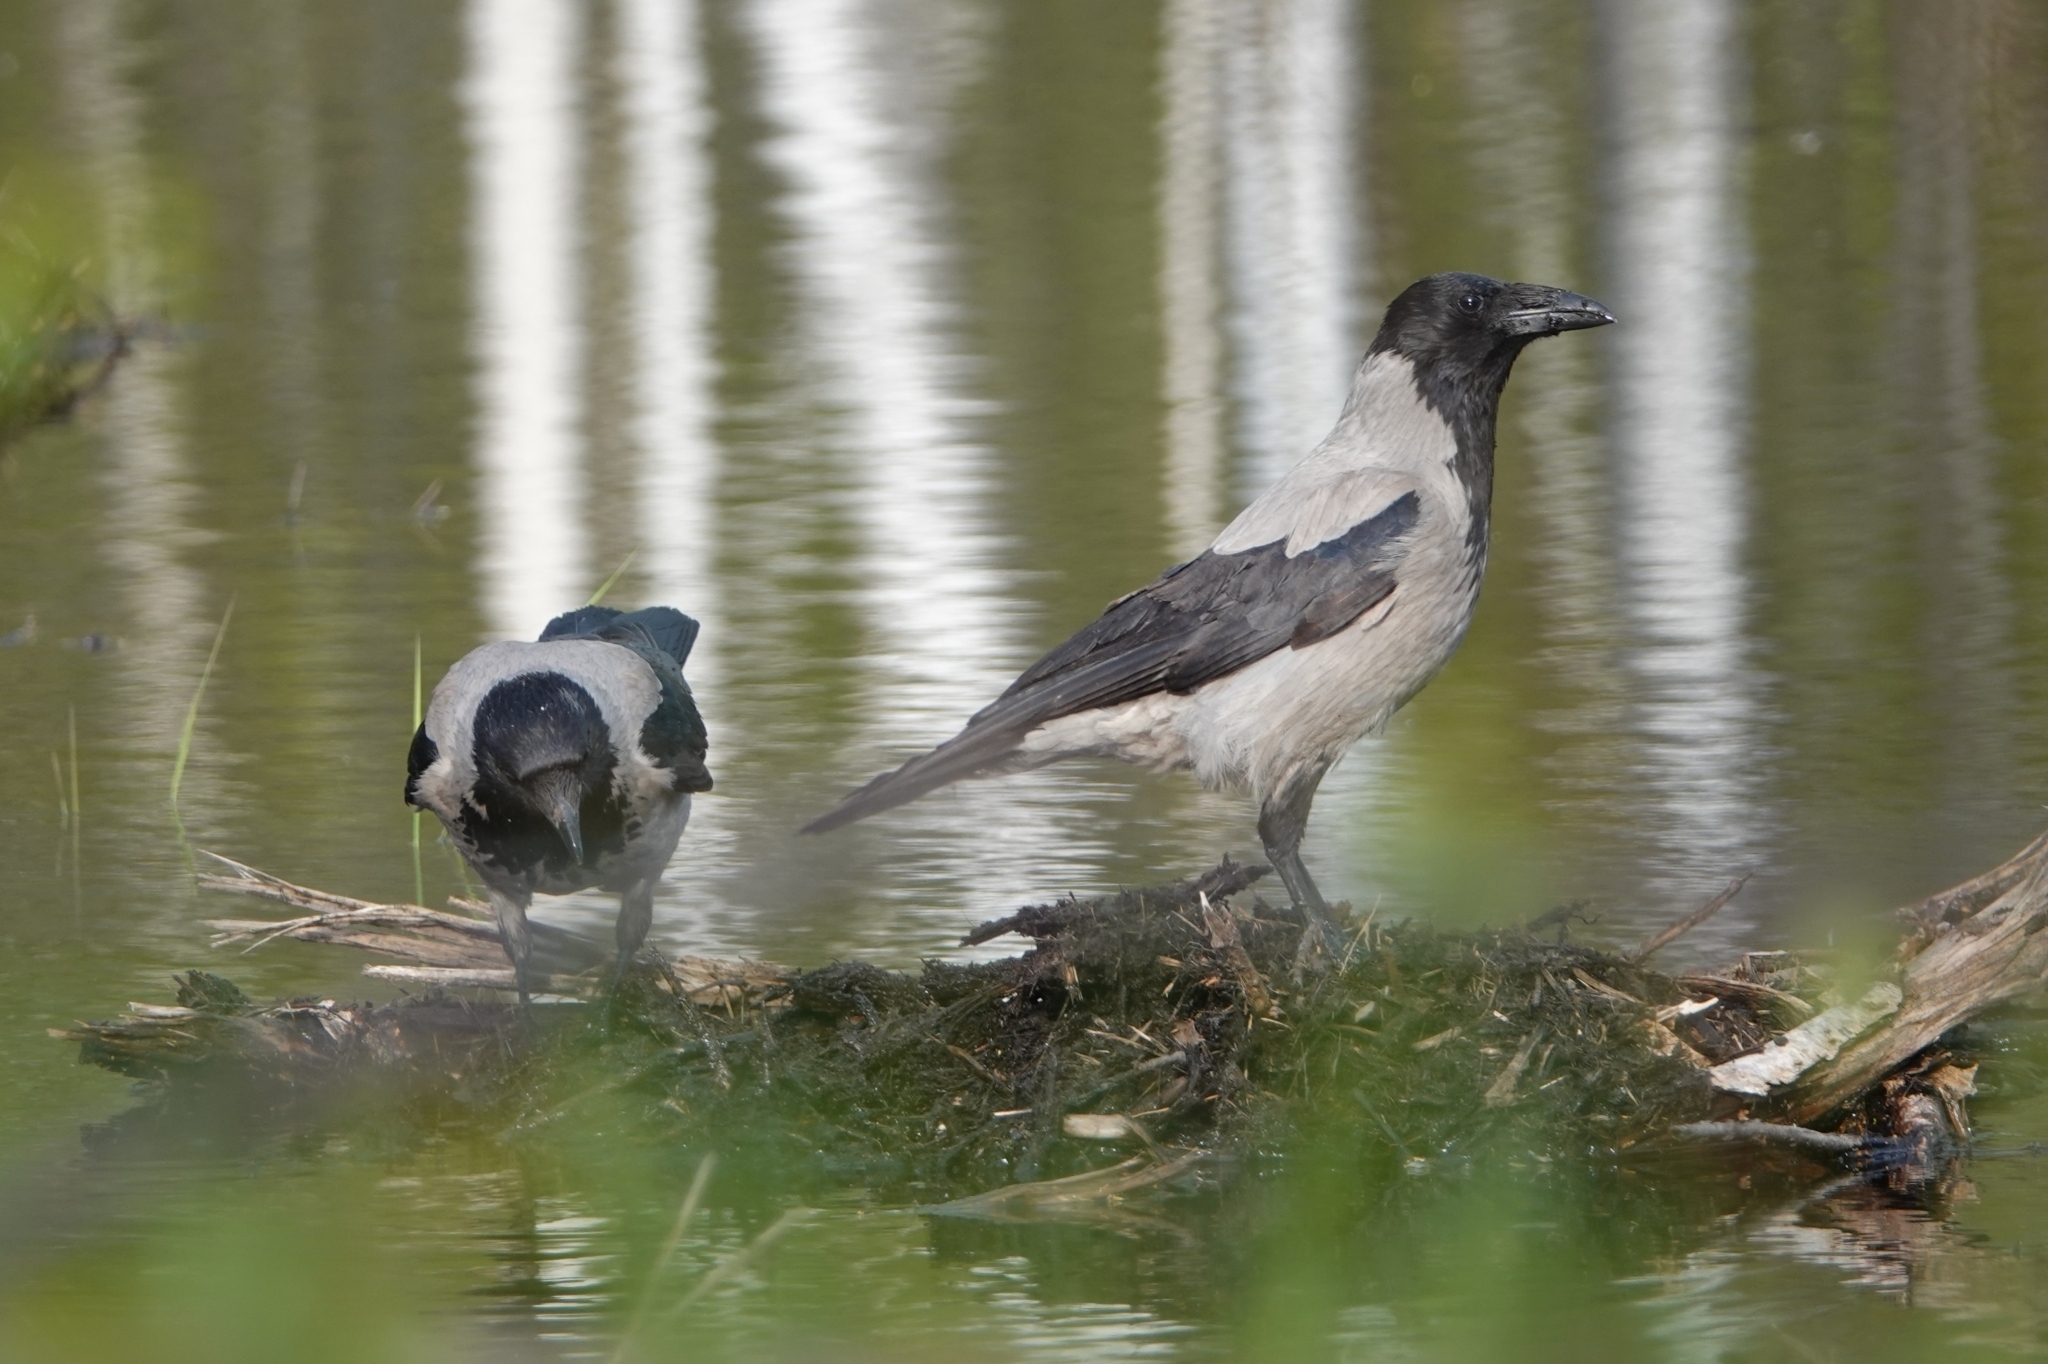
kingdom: Animalia
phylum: Chordata
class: Aves
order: Passeriformes
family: Corvidae
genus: Corvus
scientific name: Corvus cornix
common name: Hooded crow
